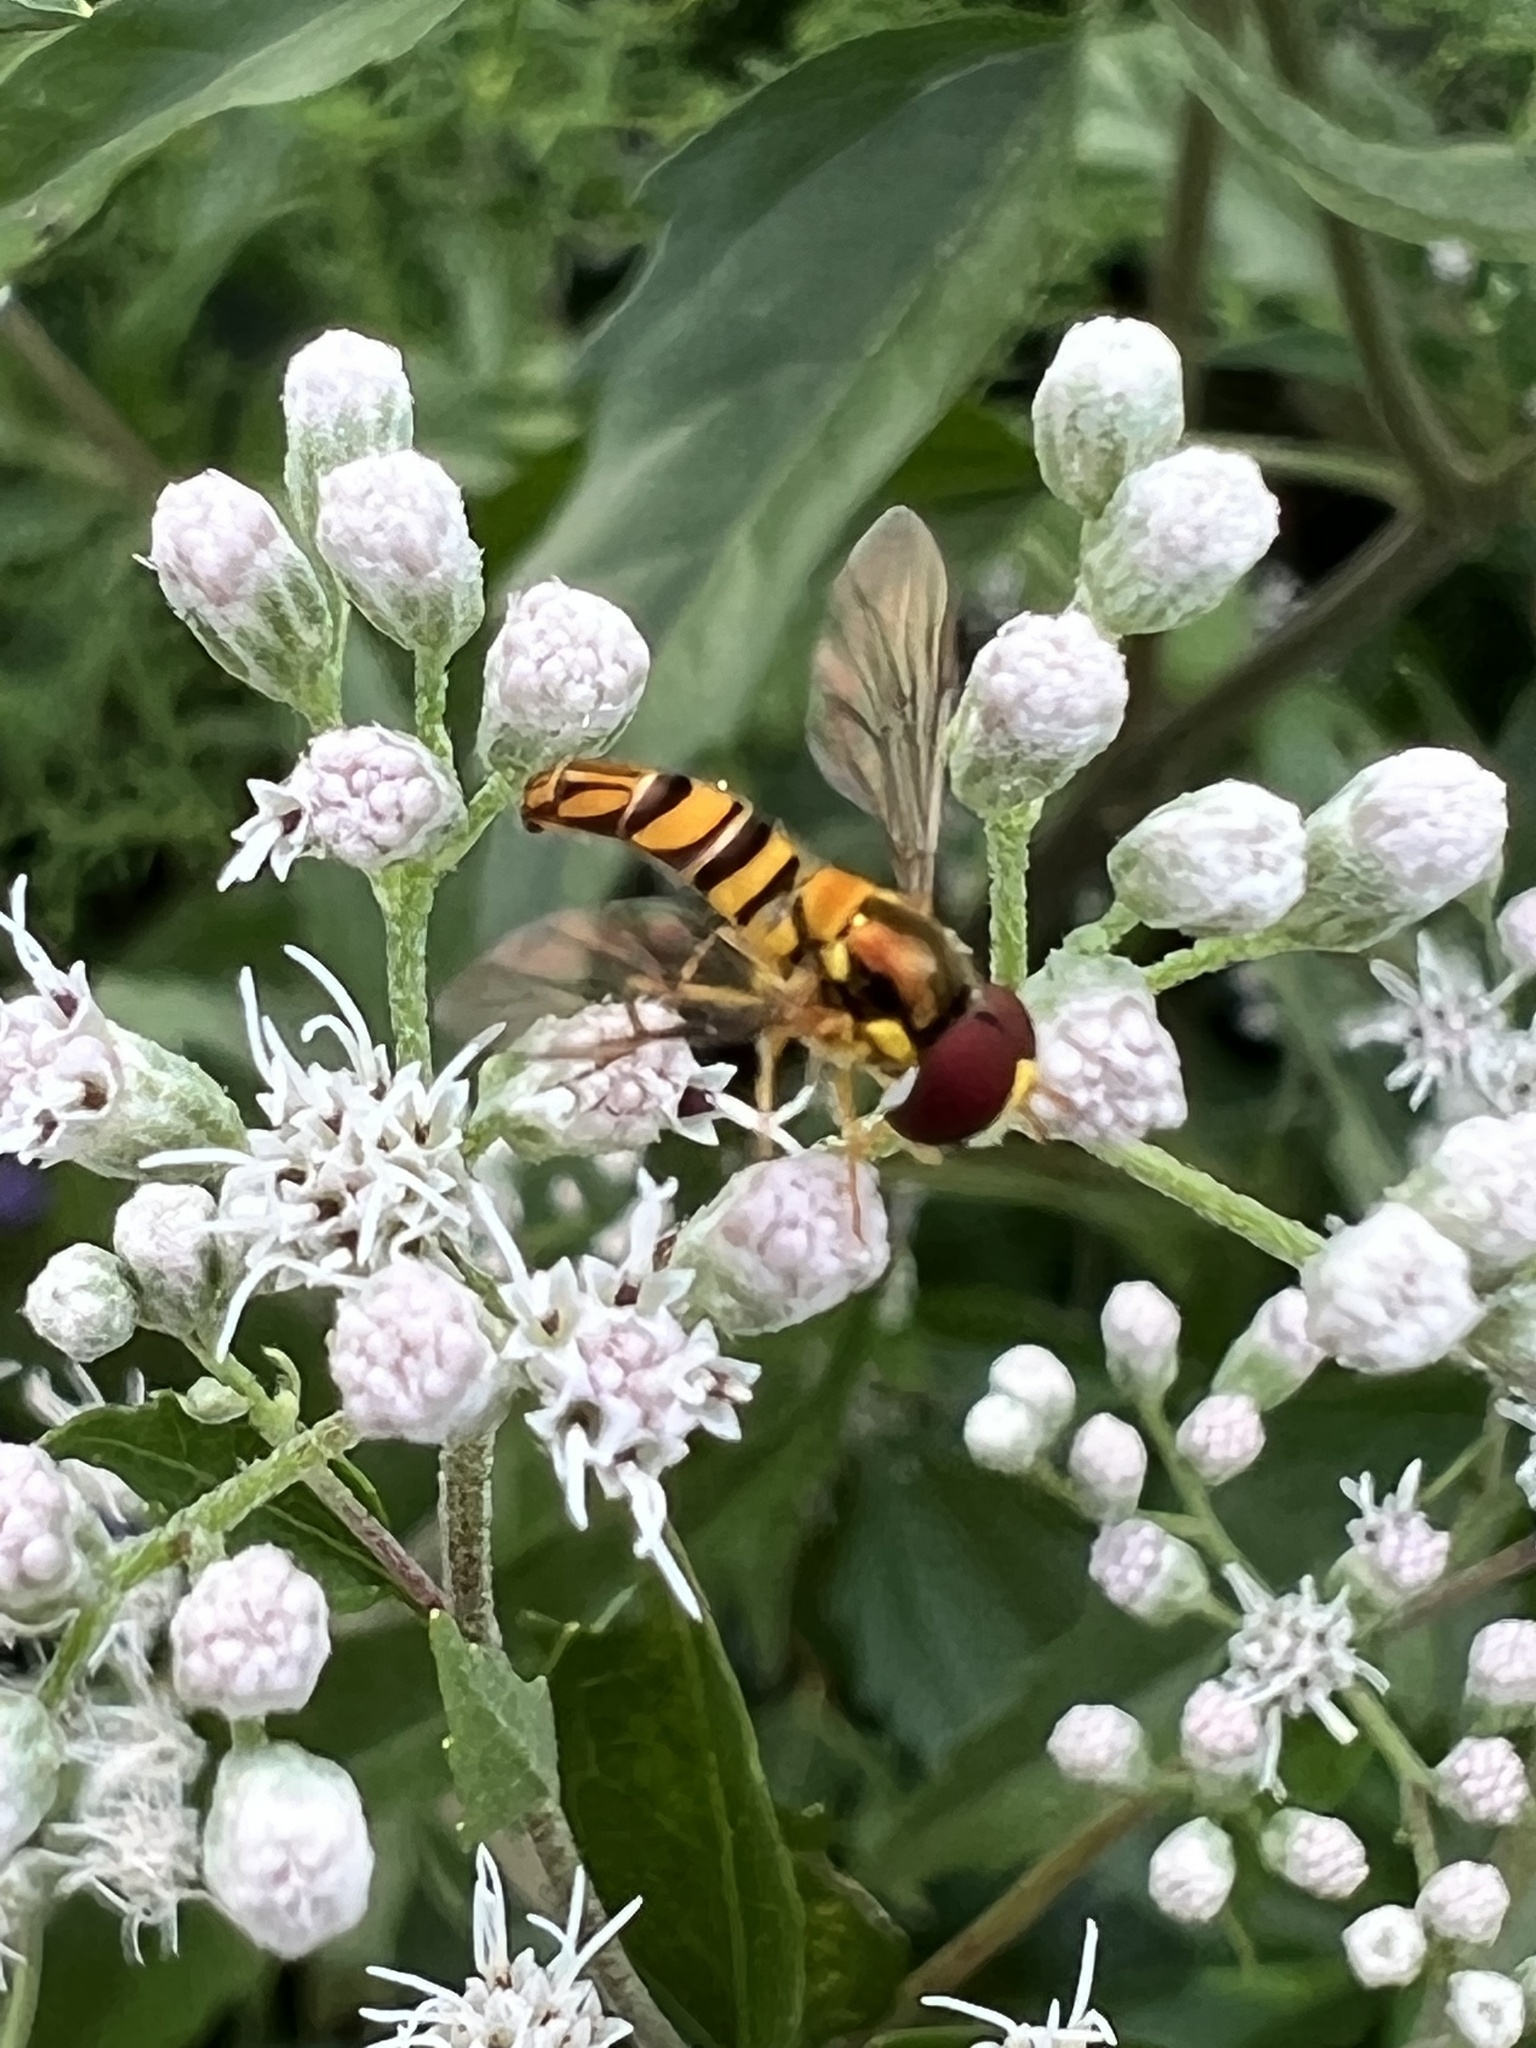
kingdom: Animalia
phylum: Arthropoda
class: Insecta
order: Diptera
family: Syrphidae
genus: Allograpta
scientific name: Allograpta obliqua
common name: Common oblique syrphid
